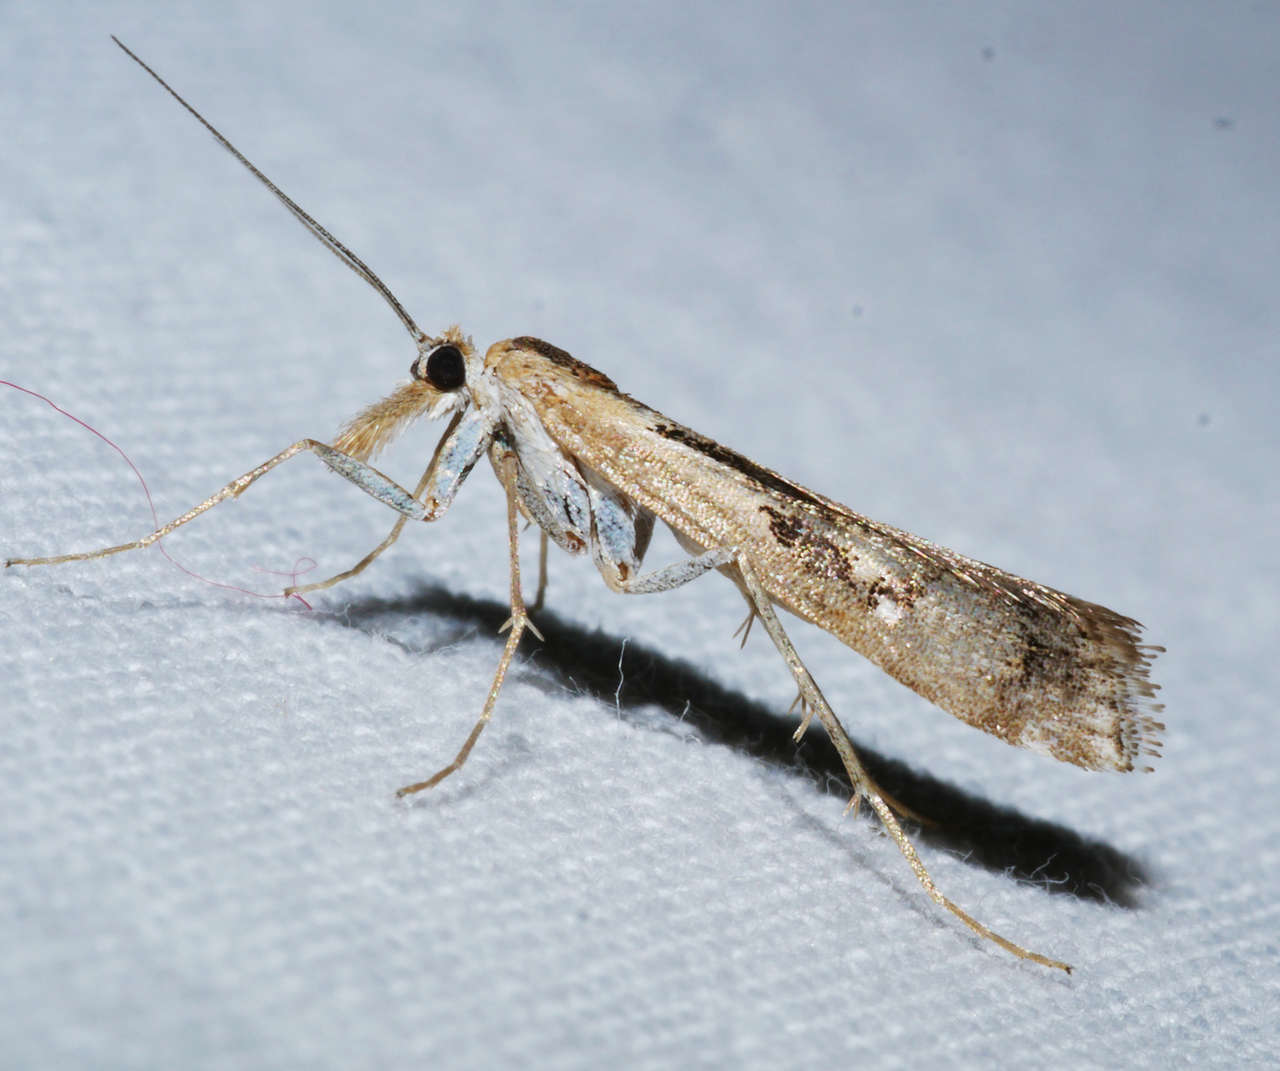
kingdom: Animalia
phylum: Arthropoda
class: Insecta
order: Lepidoptera
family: Crambidae
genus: Hednota
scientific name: Hednota pedionoma
